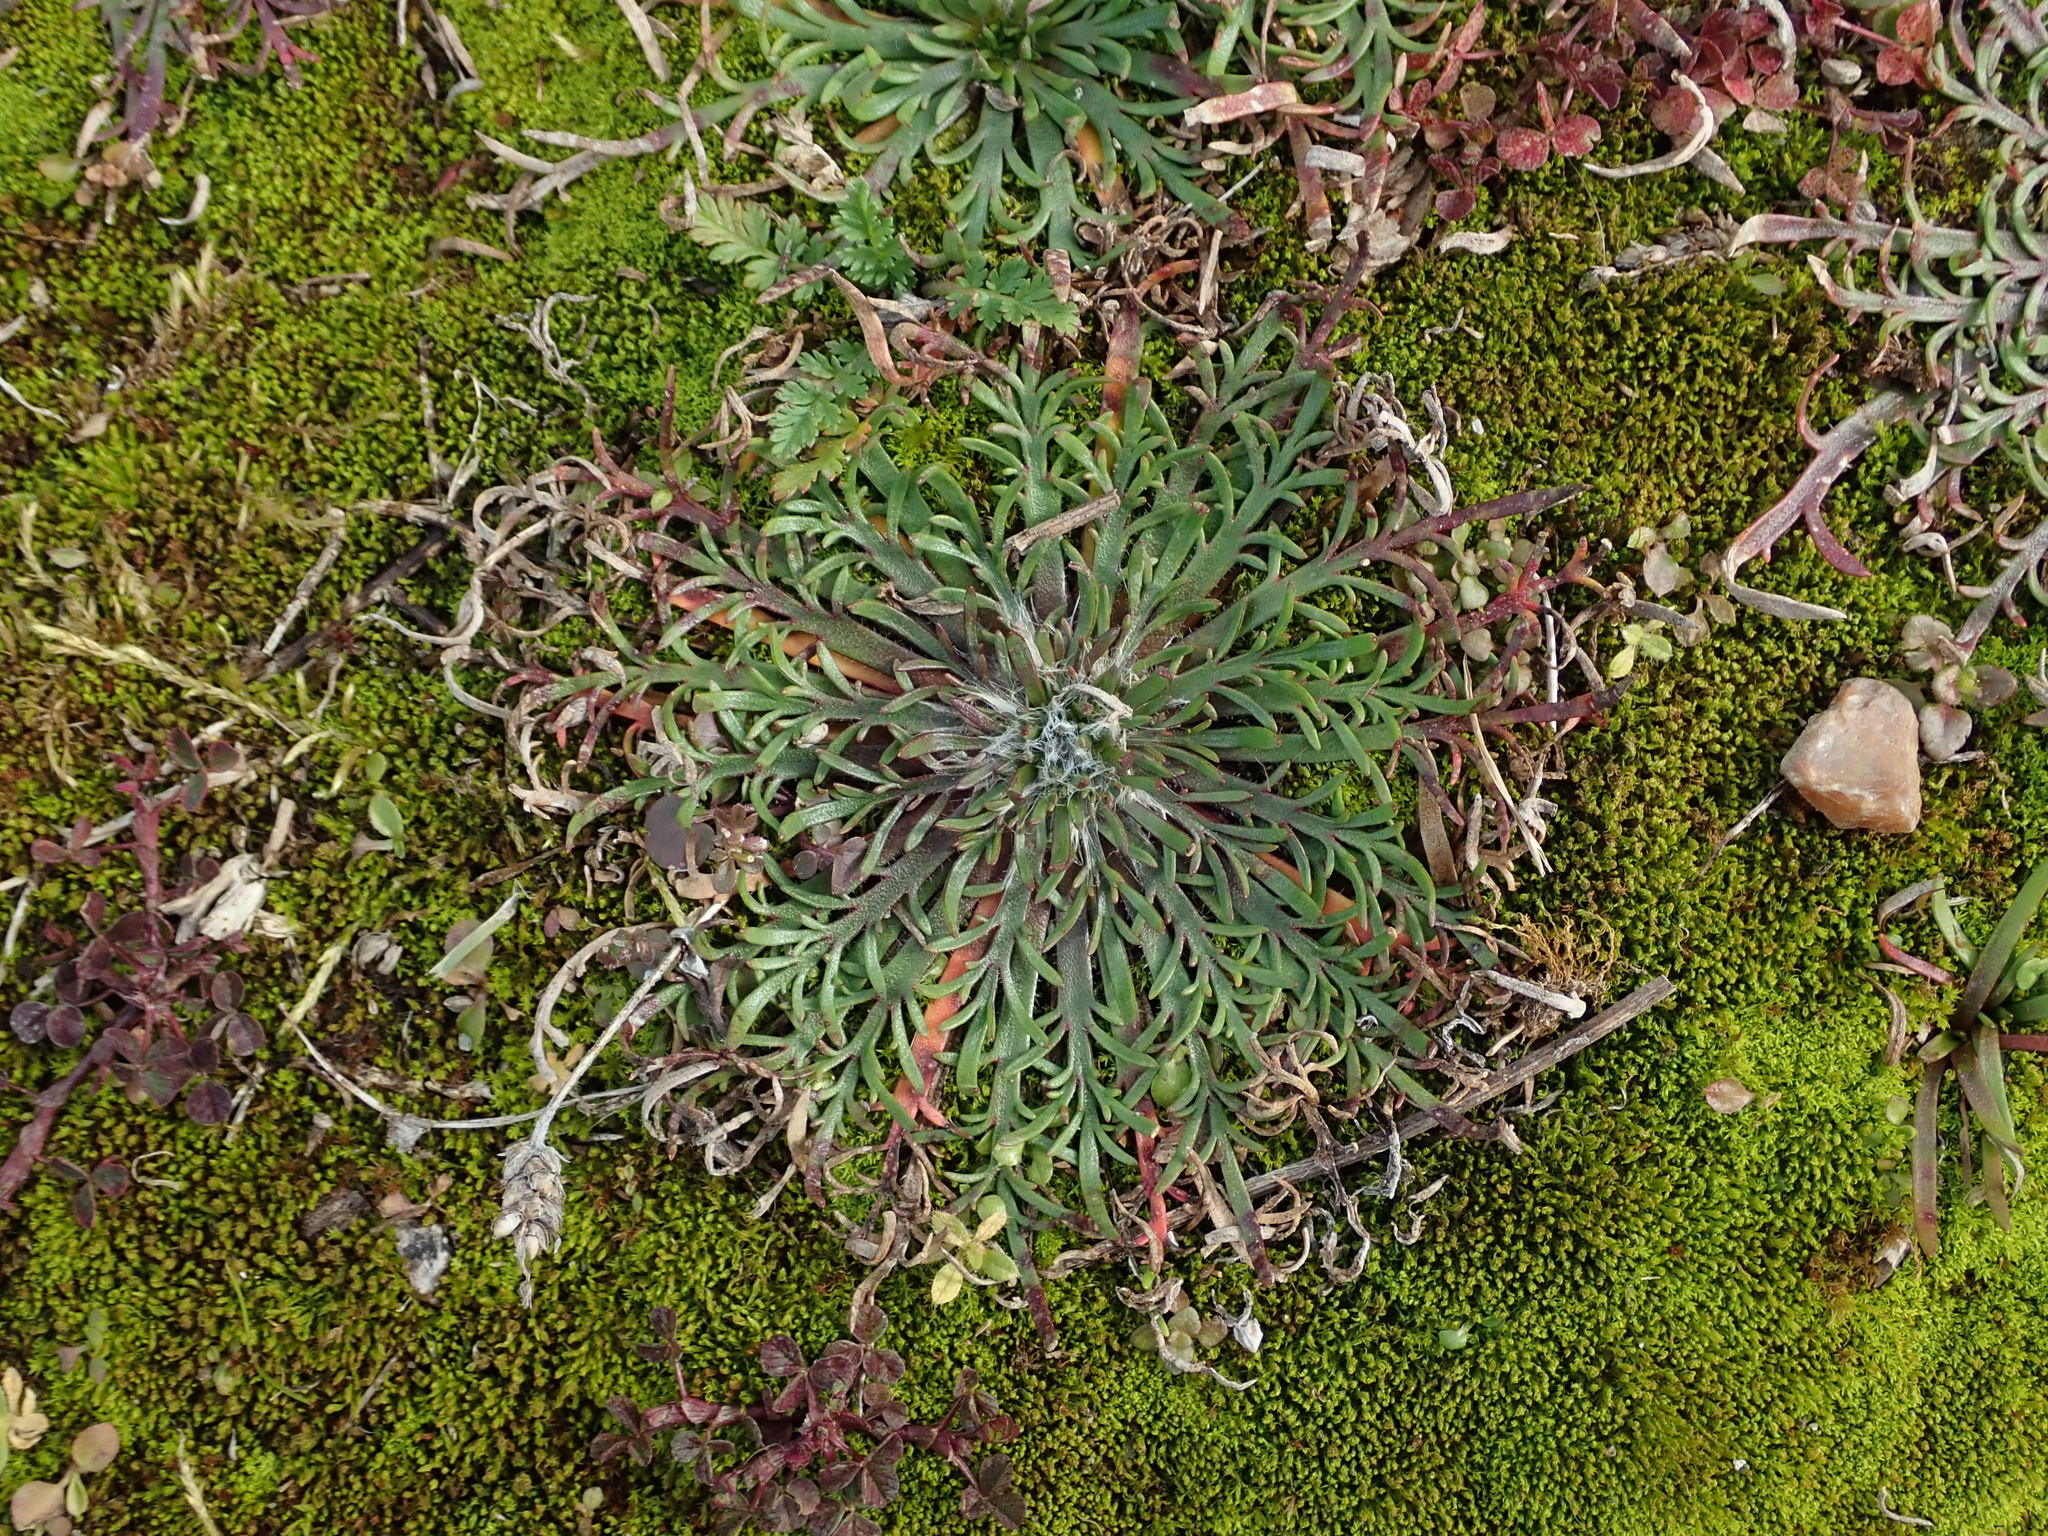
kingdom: Plantae
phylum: Tracheophyta
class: Magnoliopsida
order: Lamiales
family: Plantaginaceae
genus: Plantago
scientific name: Plantago coronopus
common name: Buck's-horn plantain
